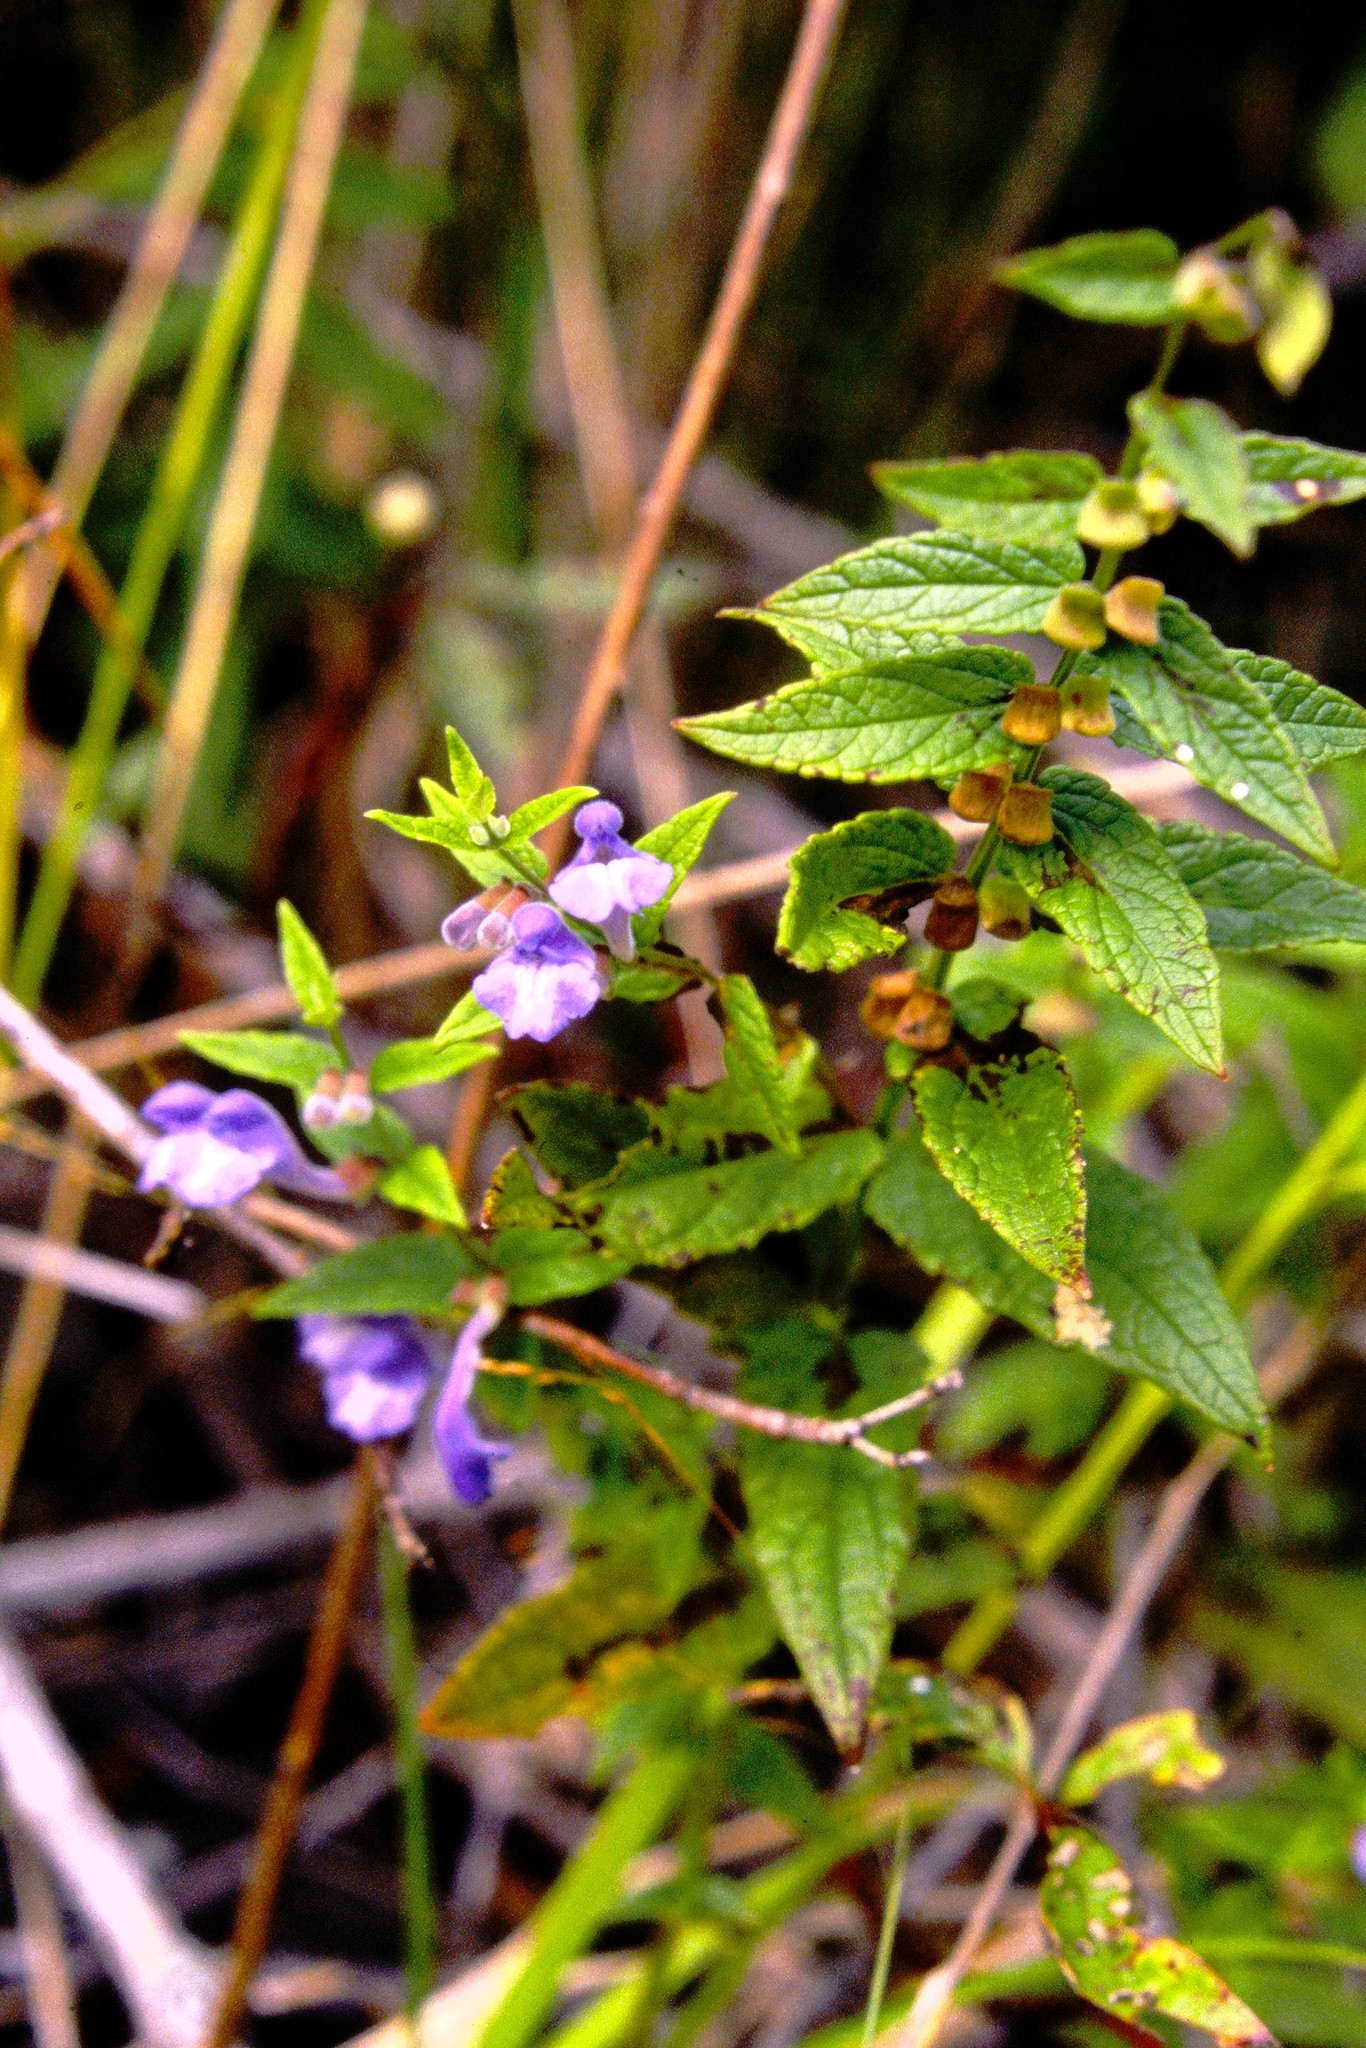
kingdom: Plantae
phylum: Tracheophyta
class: Magnoliopsida
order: Lamiales
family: Lamiaceae
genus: Scutellaria
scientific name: Scutellaria galericulata
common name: Skullcap
